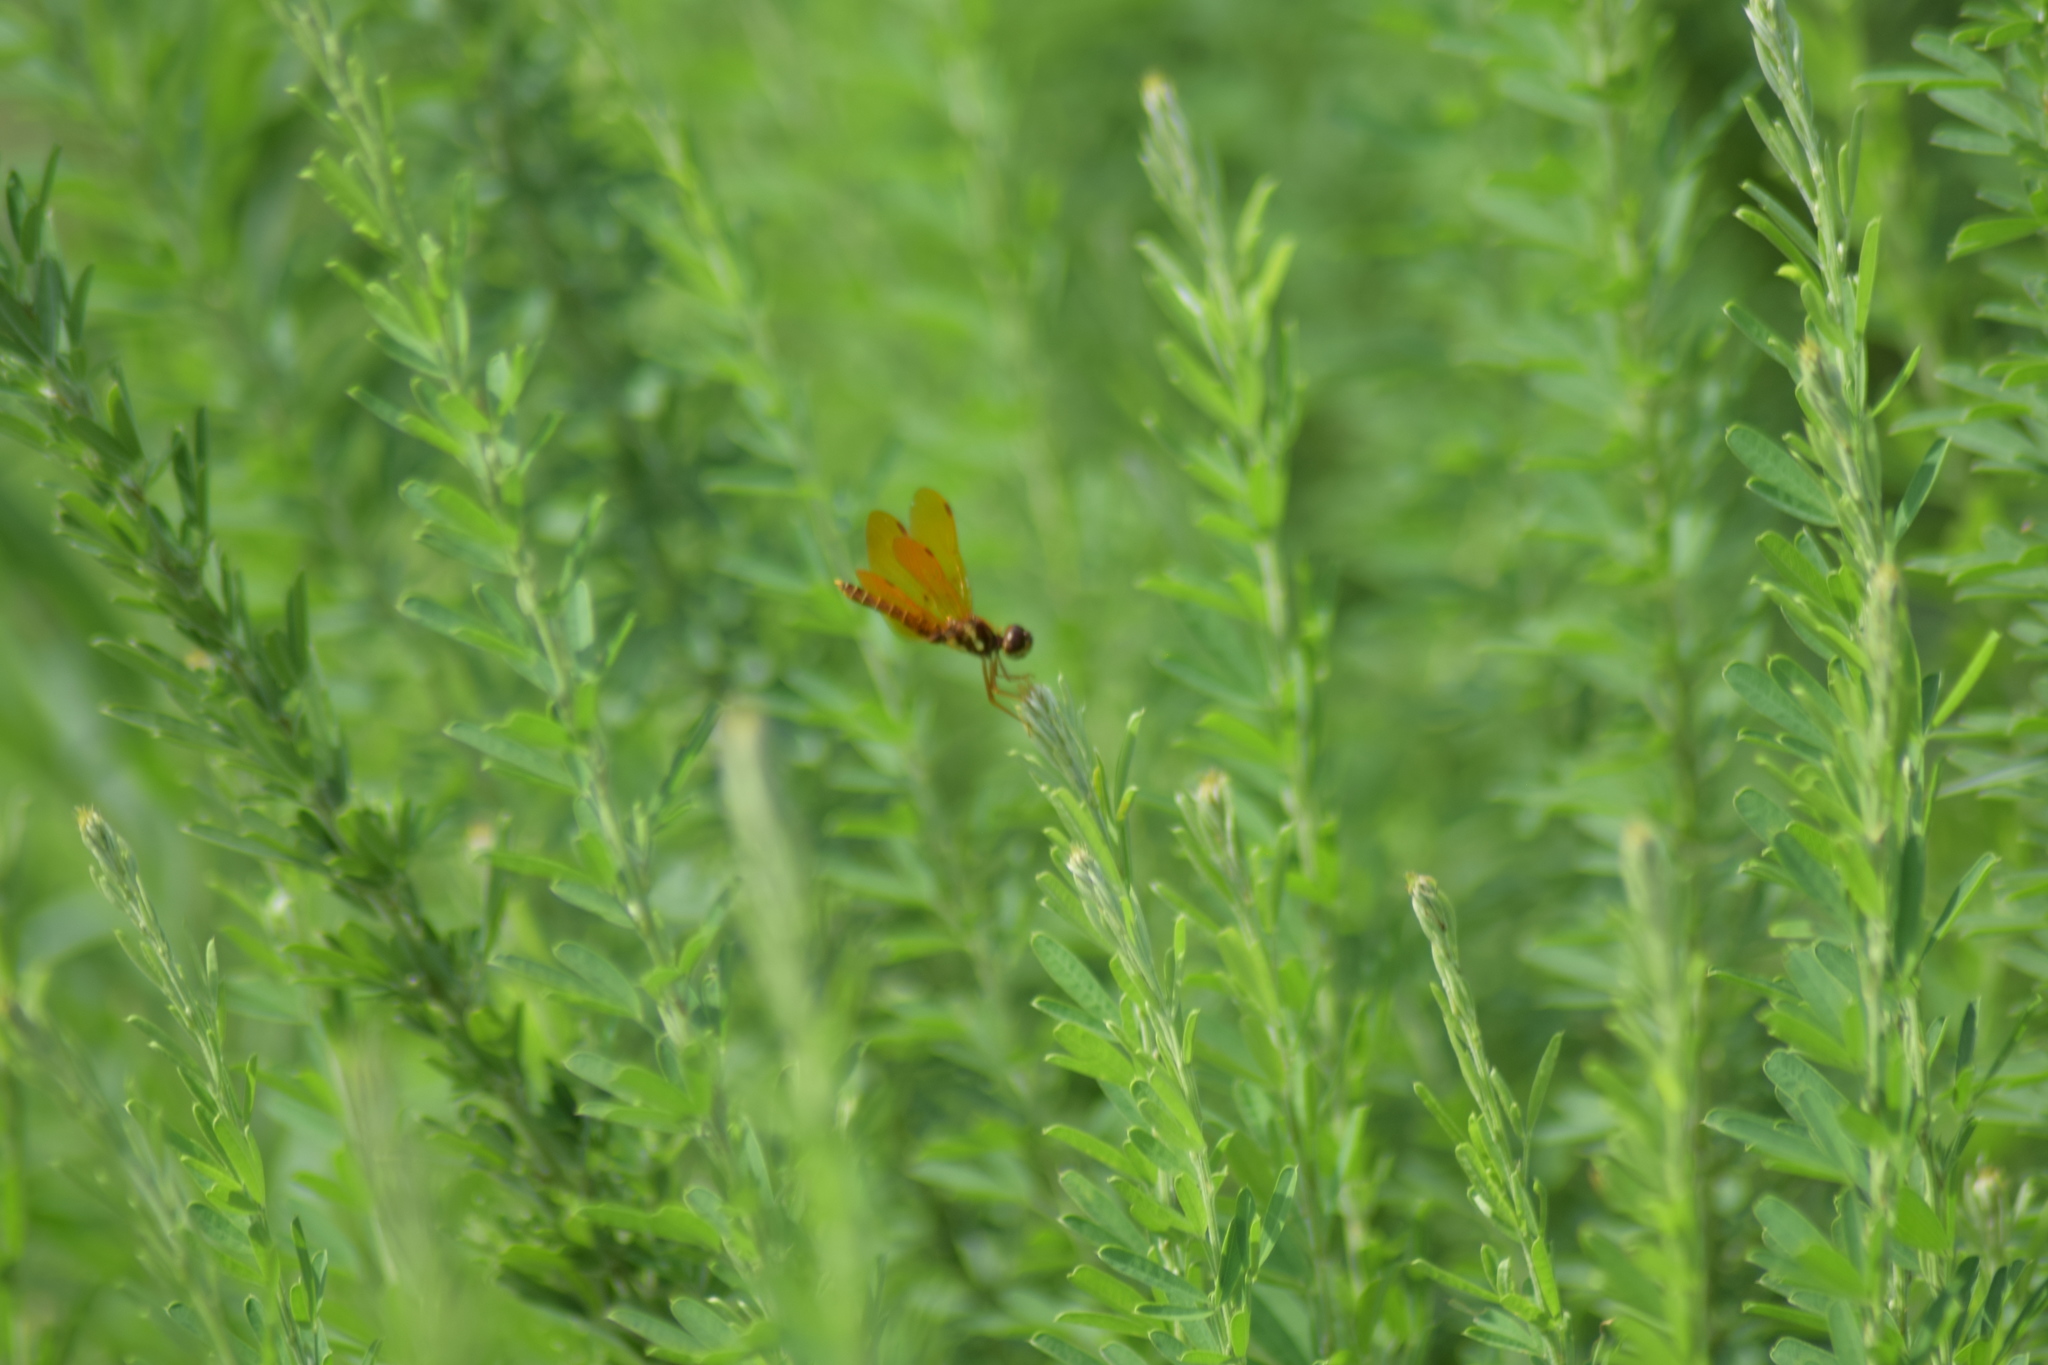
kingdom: Animalia
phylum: Arthropoda
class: Insecta
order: Odonata
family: Libellulidae
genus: Perithemis
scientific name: Perithemis tenera
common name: Eastern amberwing
